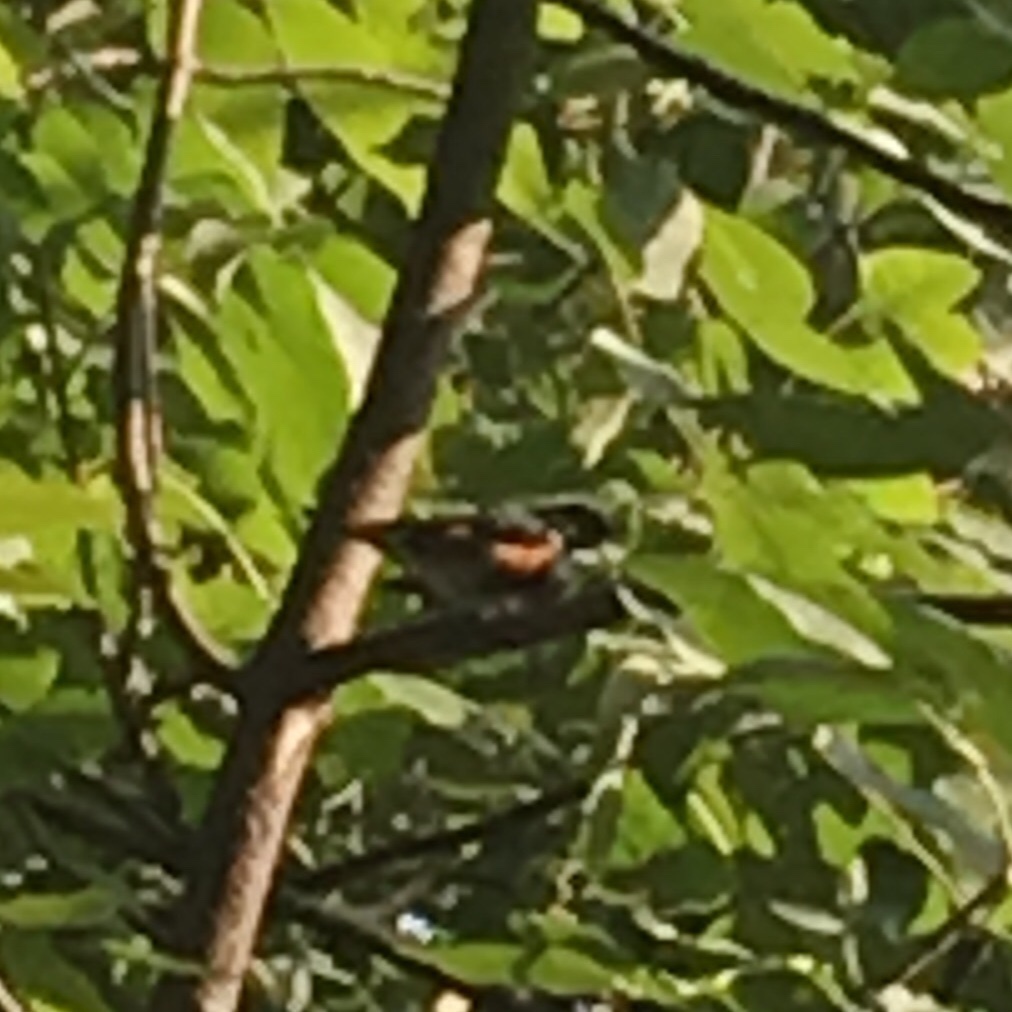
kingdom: Animalia
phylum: Chordata
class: Aves
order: Passeriformes
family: Parulidae
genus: Setophaga
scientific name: Setophaga ruticilla
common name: American redstart
